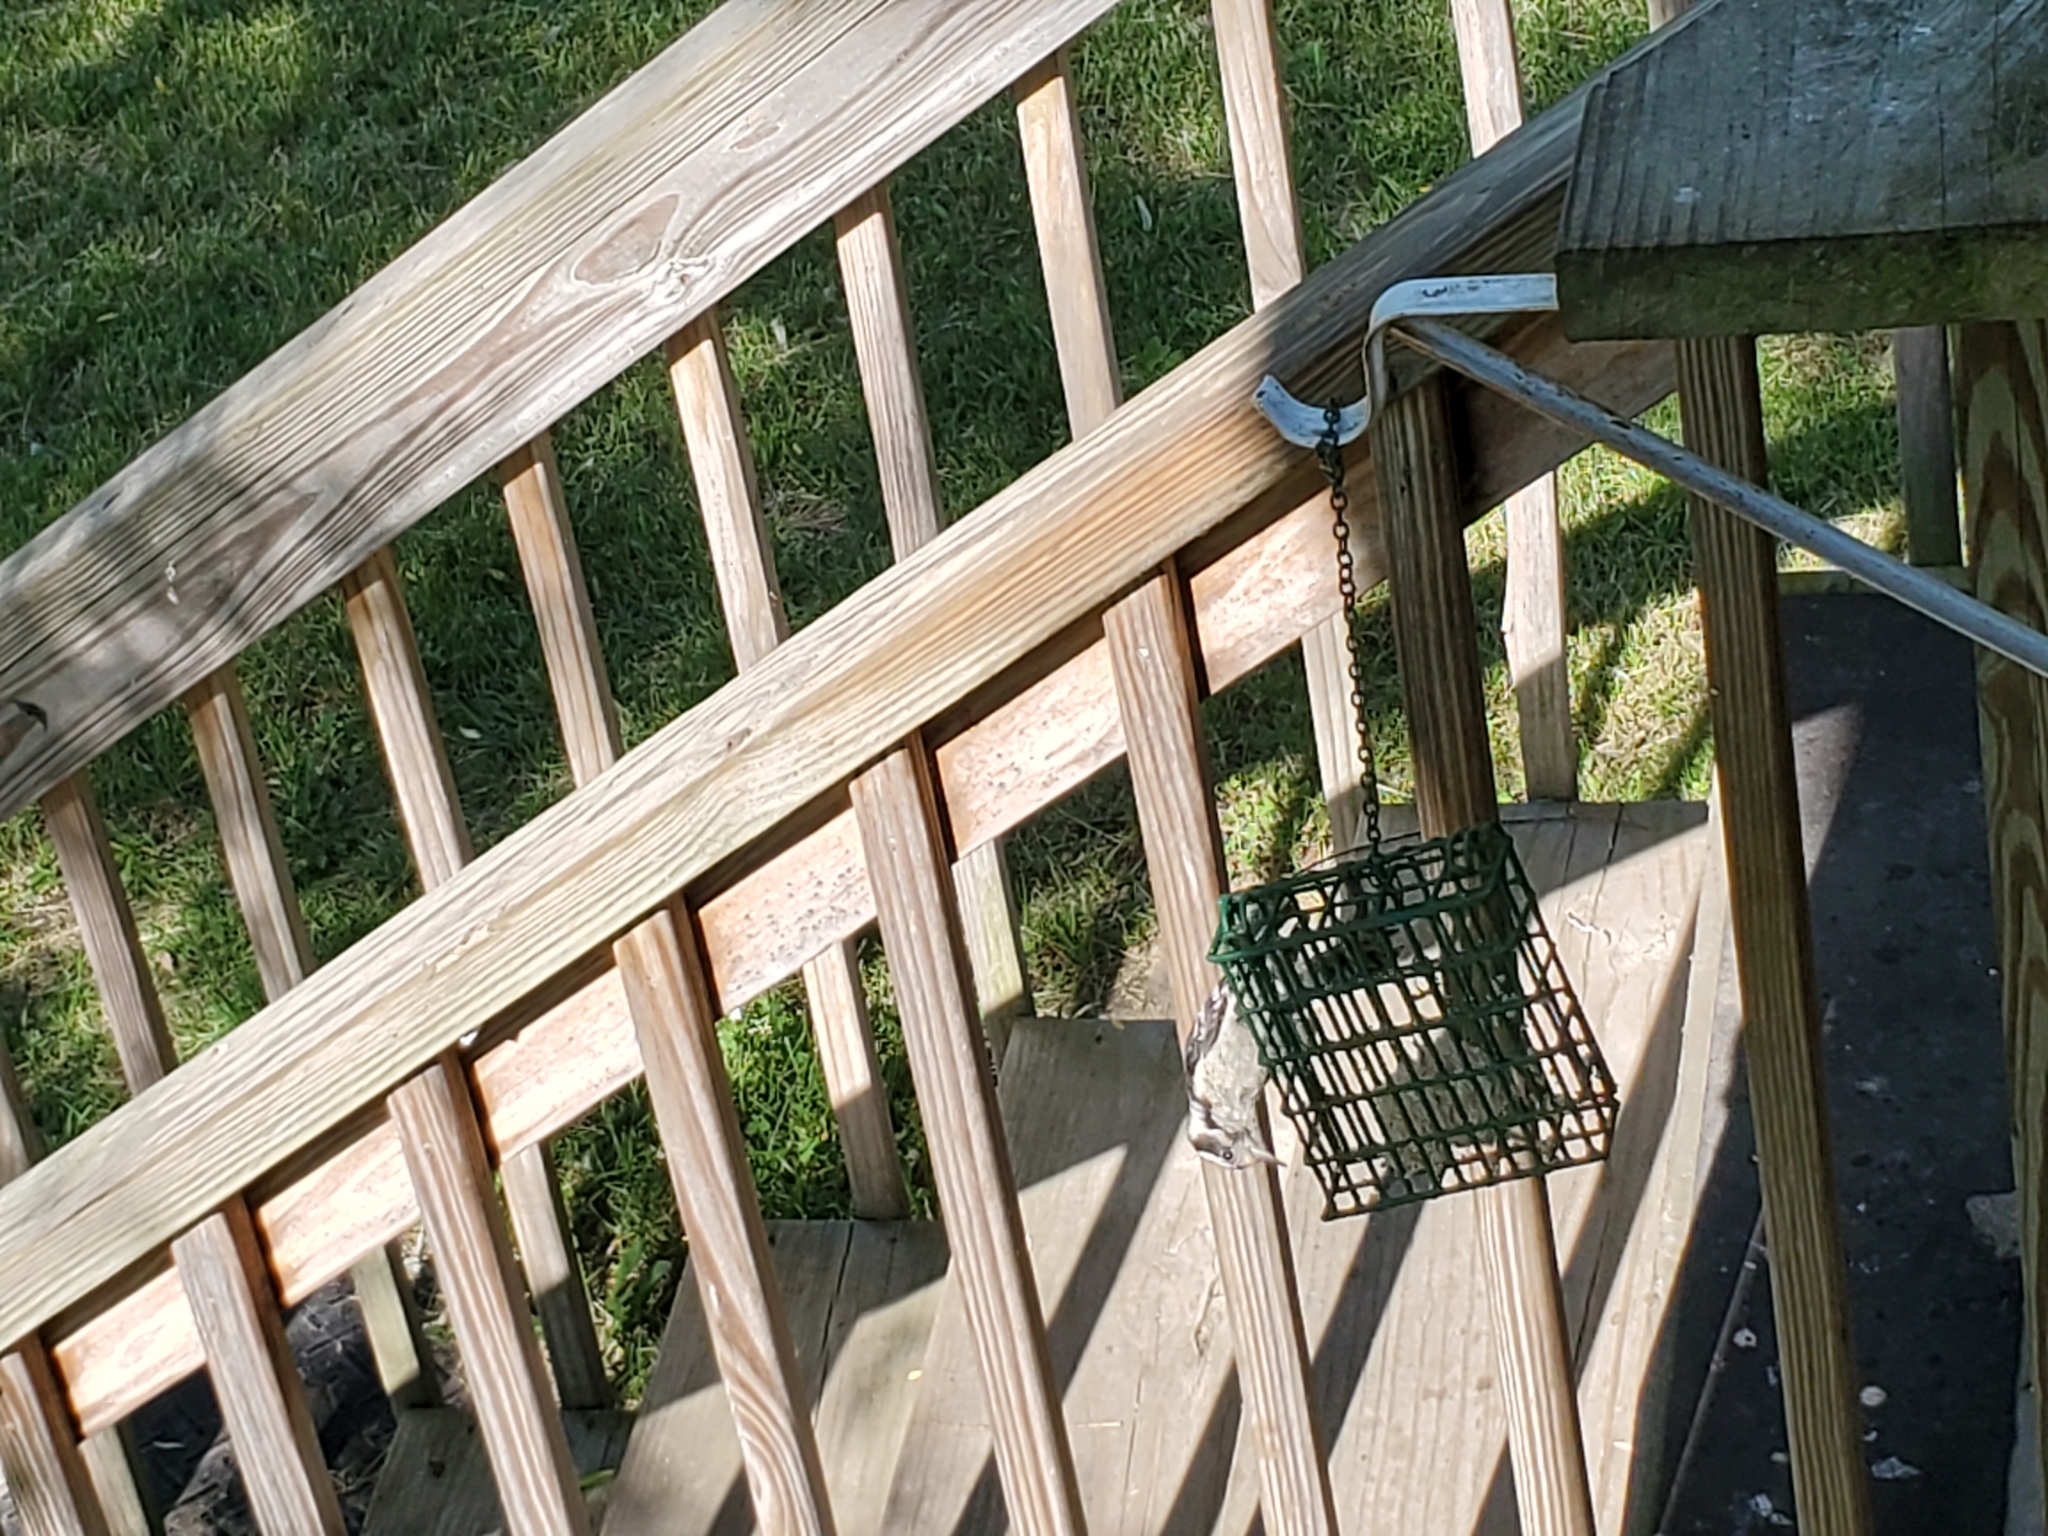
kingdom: Animalia
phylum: Chordata
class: Aves
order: Piciformes
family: Picidae
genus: Dryobates
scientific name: Dryobates pubescens
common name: Downy woodpecker
